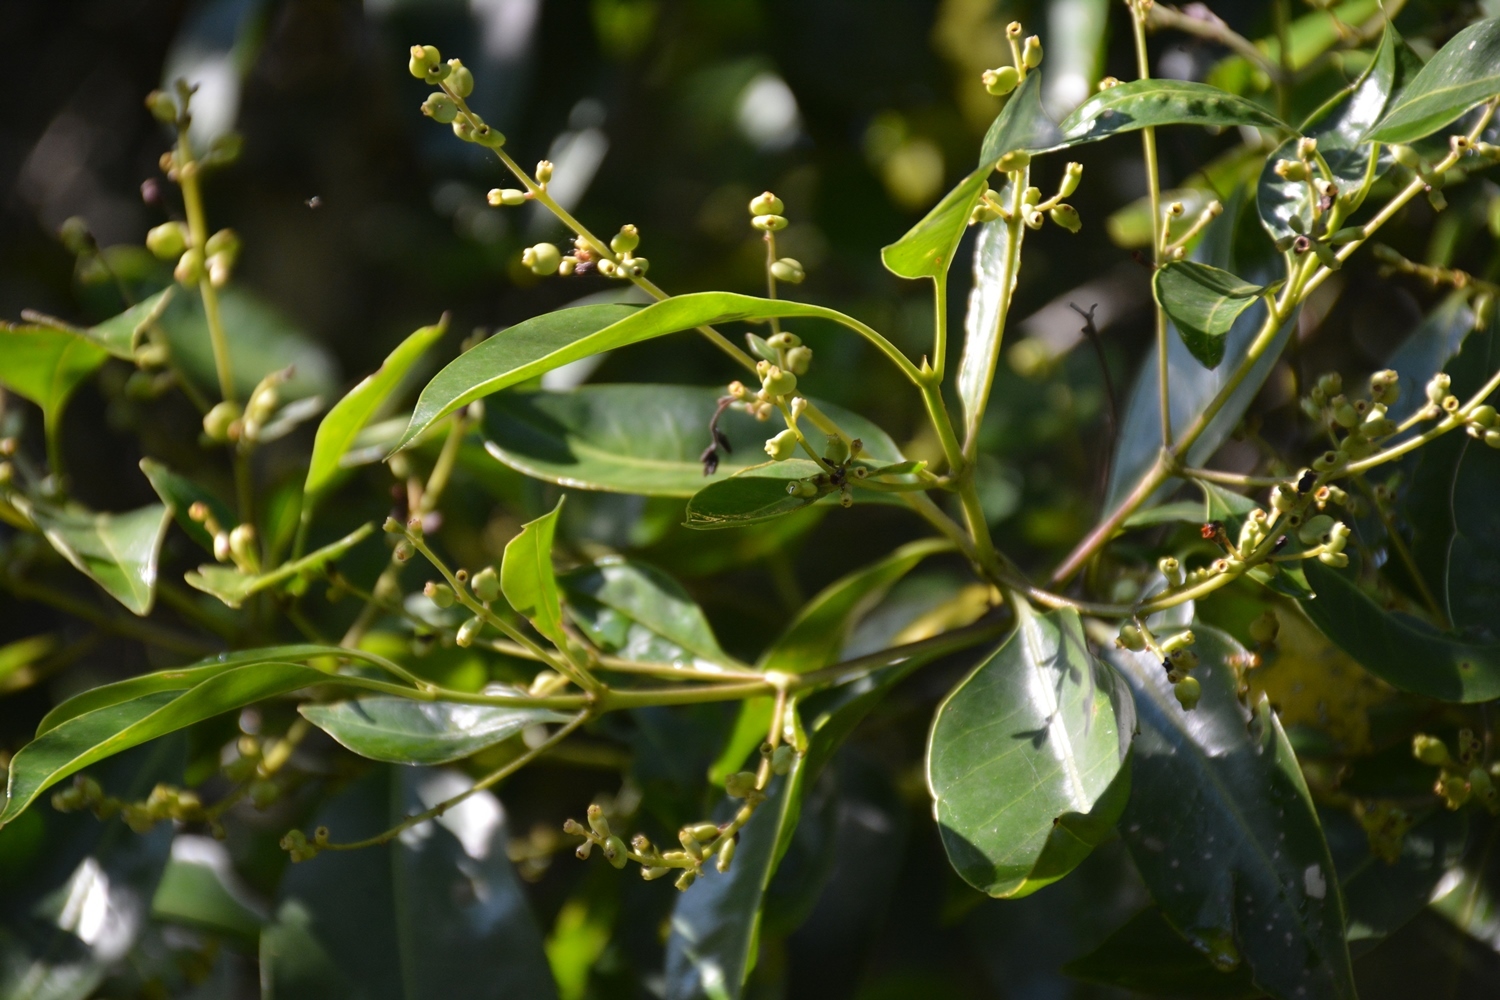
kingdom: Plantae
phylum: Tracheophyta
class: Magnoliopsida
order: Gentianales
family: Rubiaceae
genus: Chiococca
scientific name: Chiococca pachyphylla
